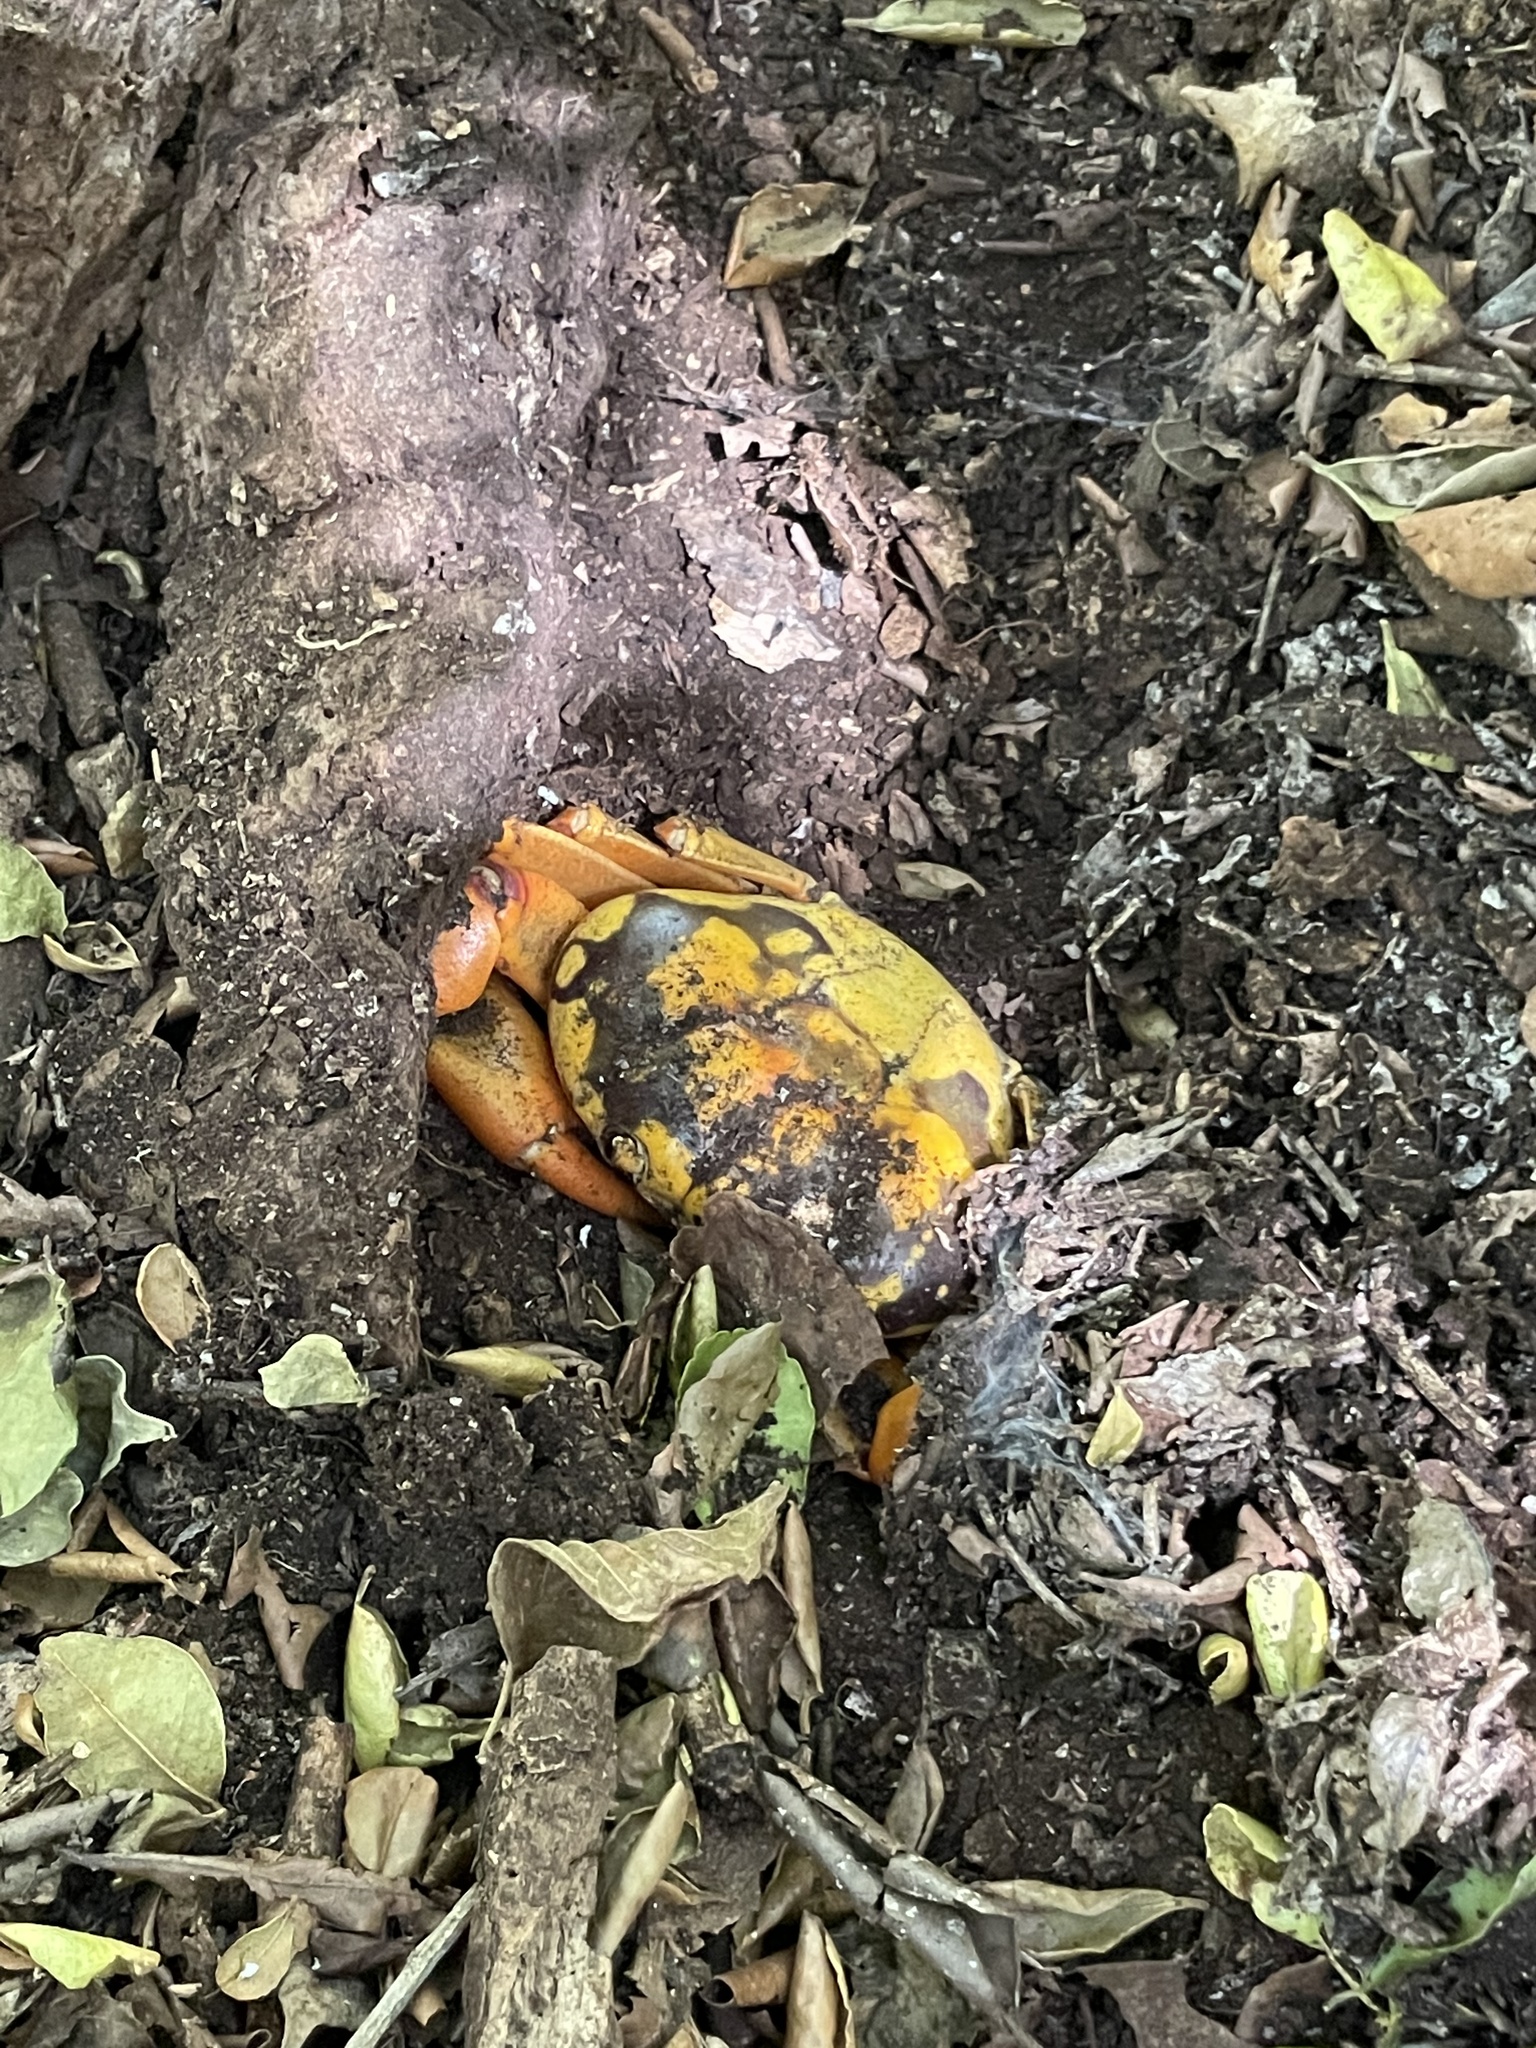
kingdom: Animalia
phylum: Arthropoda
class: Malacostraca
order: Decapoda
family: Gecarcinidae
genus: Johngarthia
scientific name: Johngarthia oceanica
